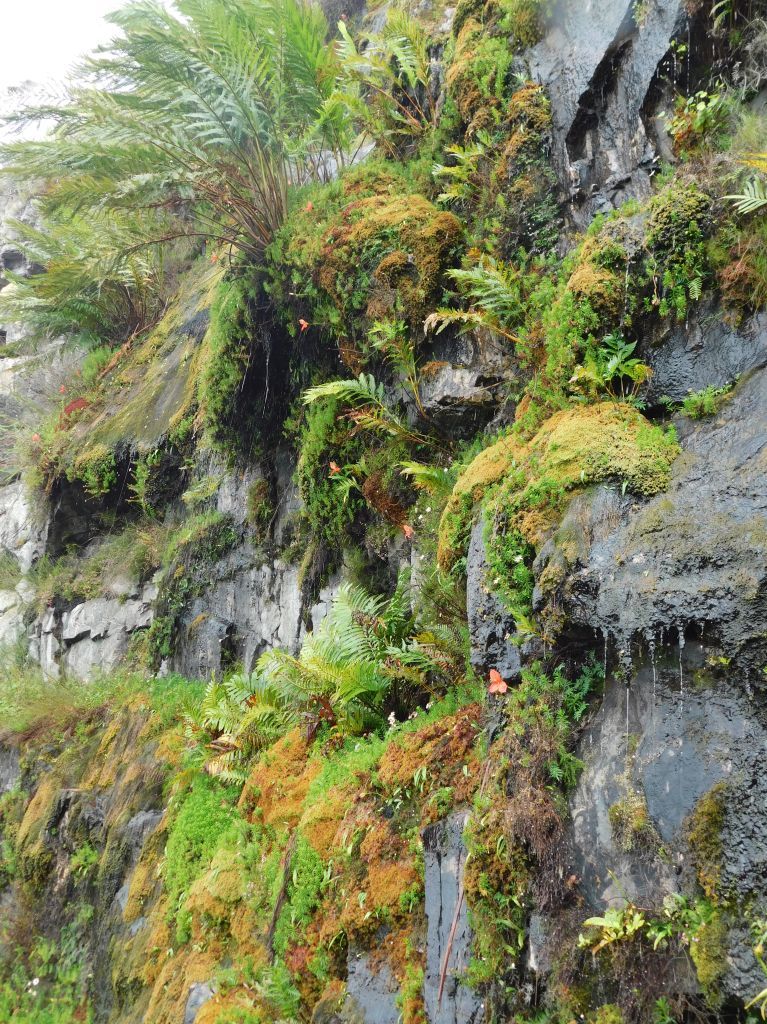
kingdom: Plantae
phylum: Tracheophyta
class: Liliopsida
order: Asparagales
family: Orchidaceae
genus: Disa
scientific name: Disa uniflora
